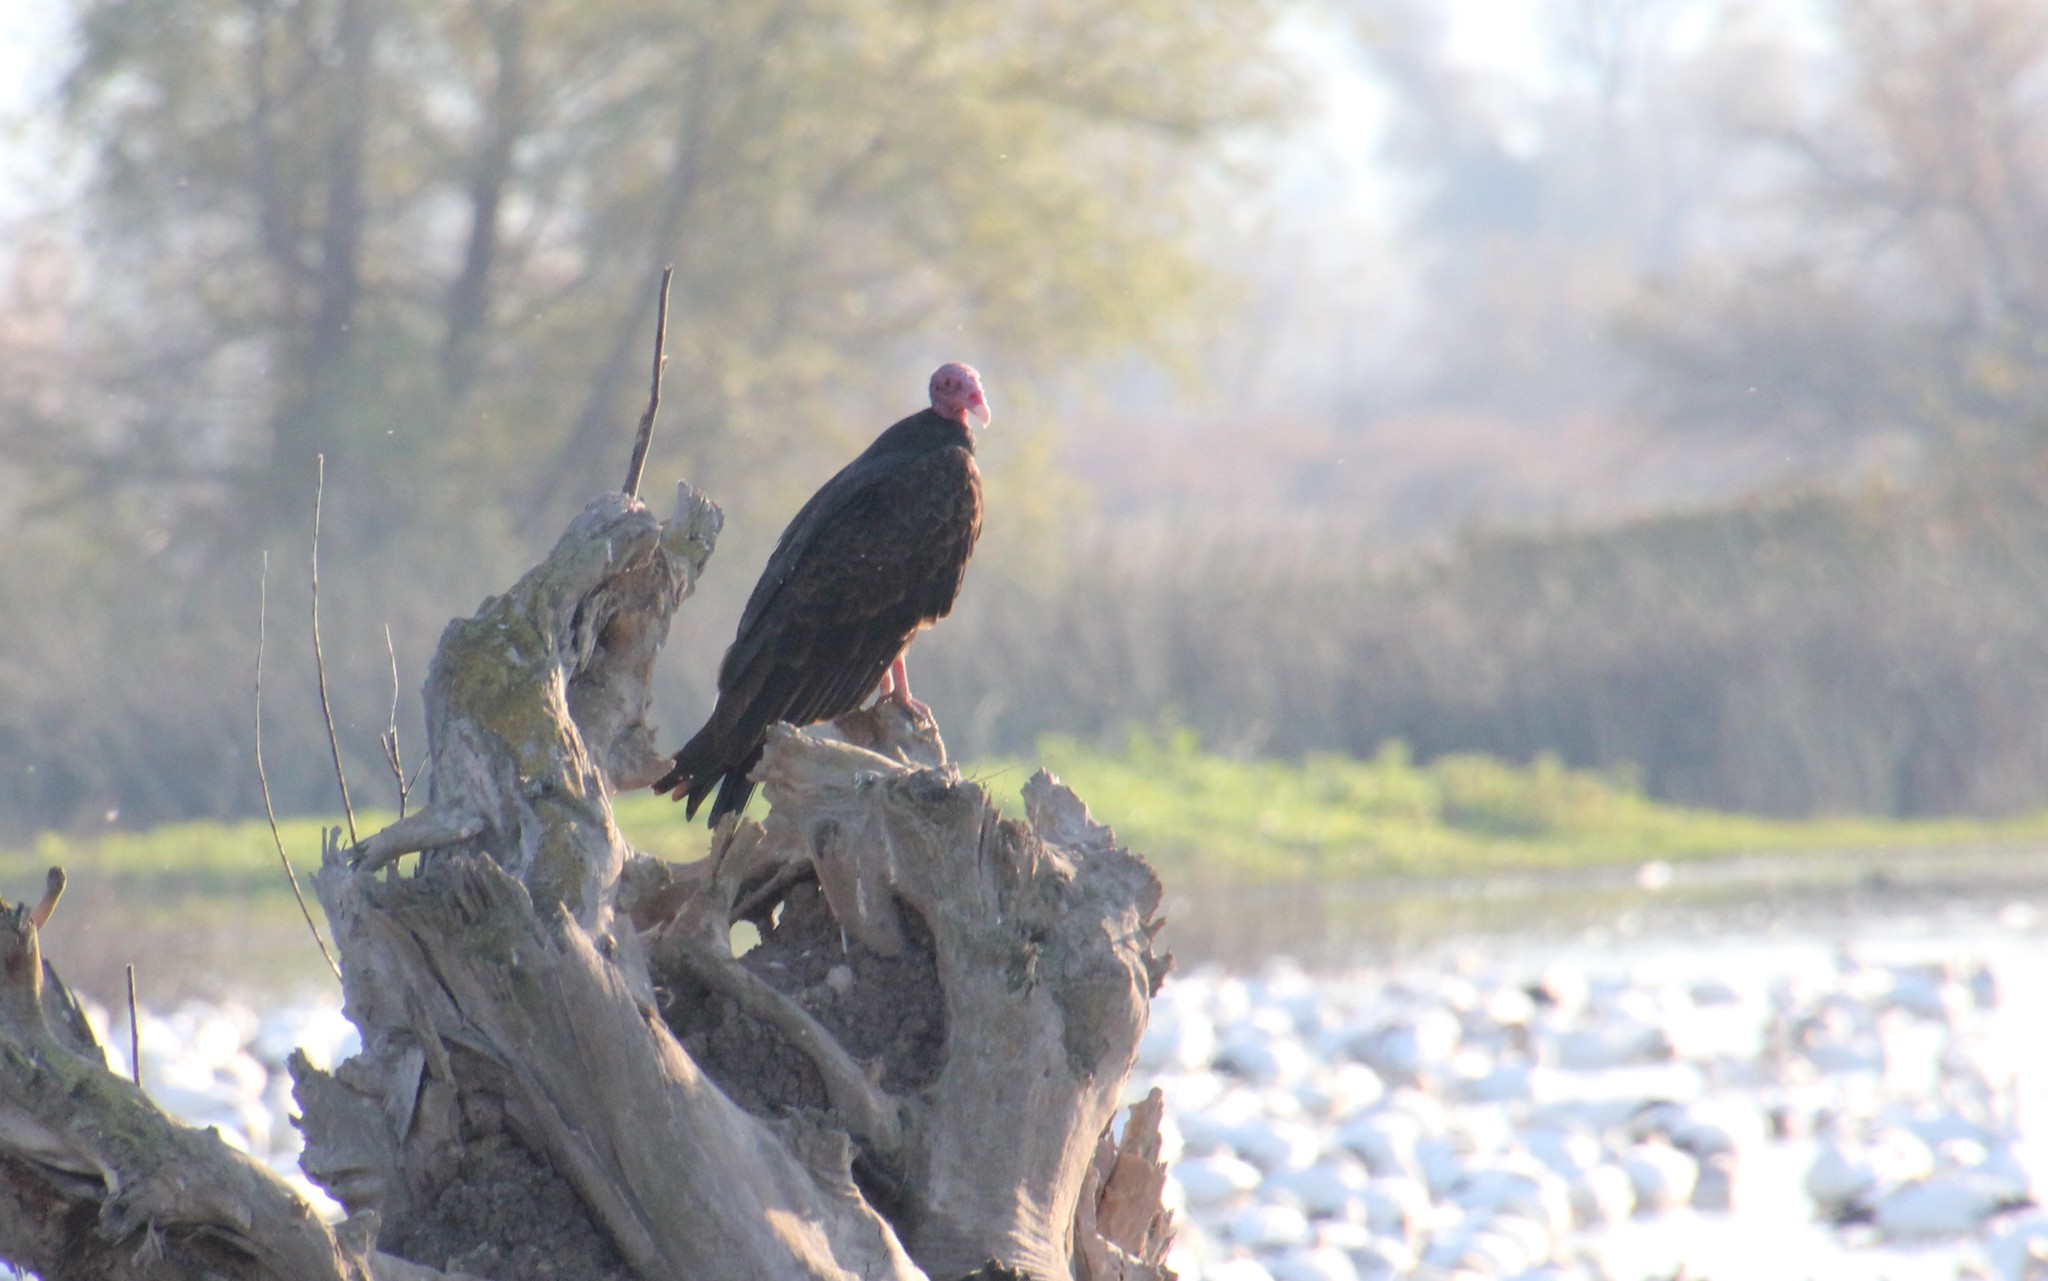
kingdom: Animalia
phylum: Chordata
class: Aves
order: Accipitriformes
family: Cathartidae
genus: Cathartes
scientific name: Cathartes aura
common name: Turkey vulture
